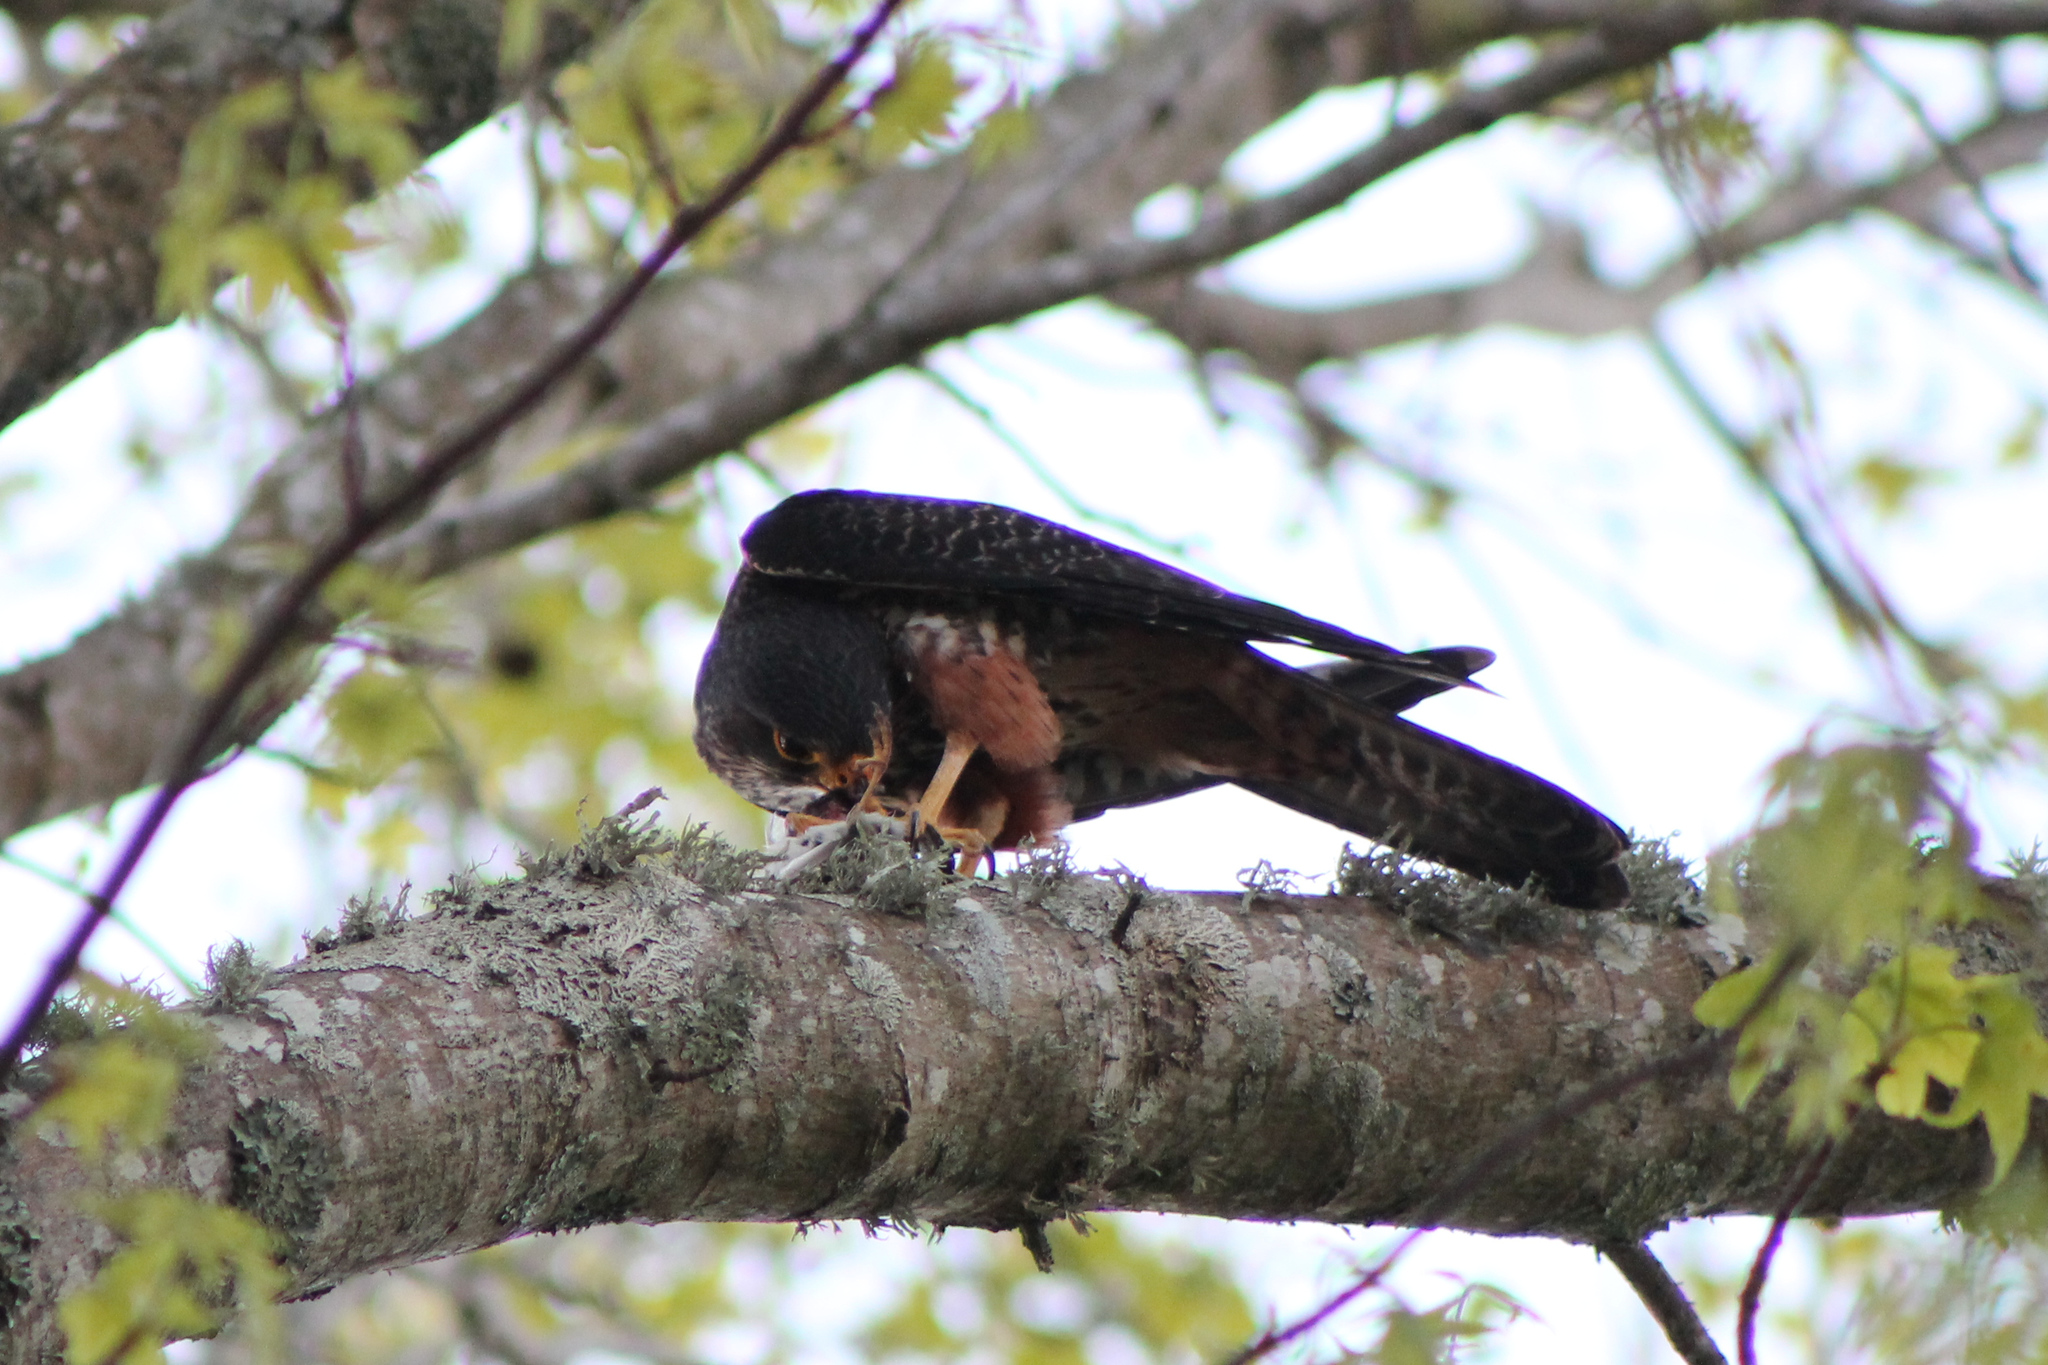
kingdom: Animalia
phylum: Chordata
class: Aves
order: Falconiformes
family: Falconidae
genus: Falco
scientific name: Falco novaeseelandiae
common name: New zealand falcon
